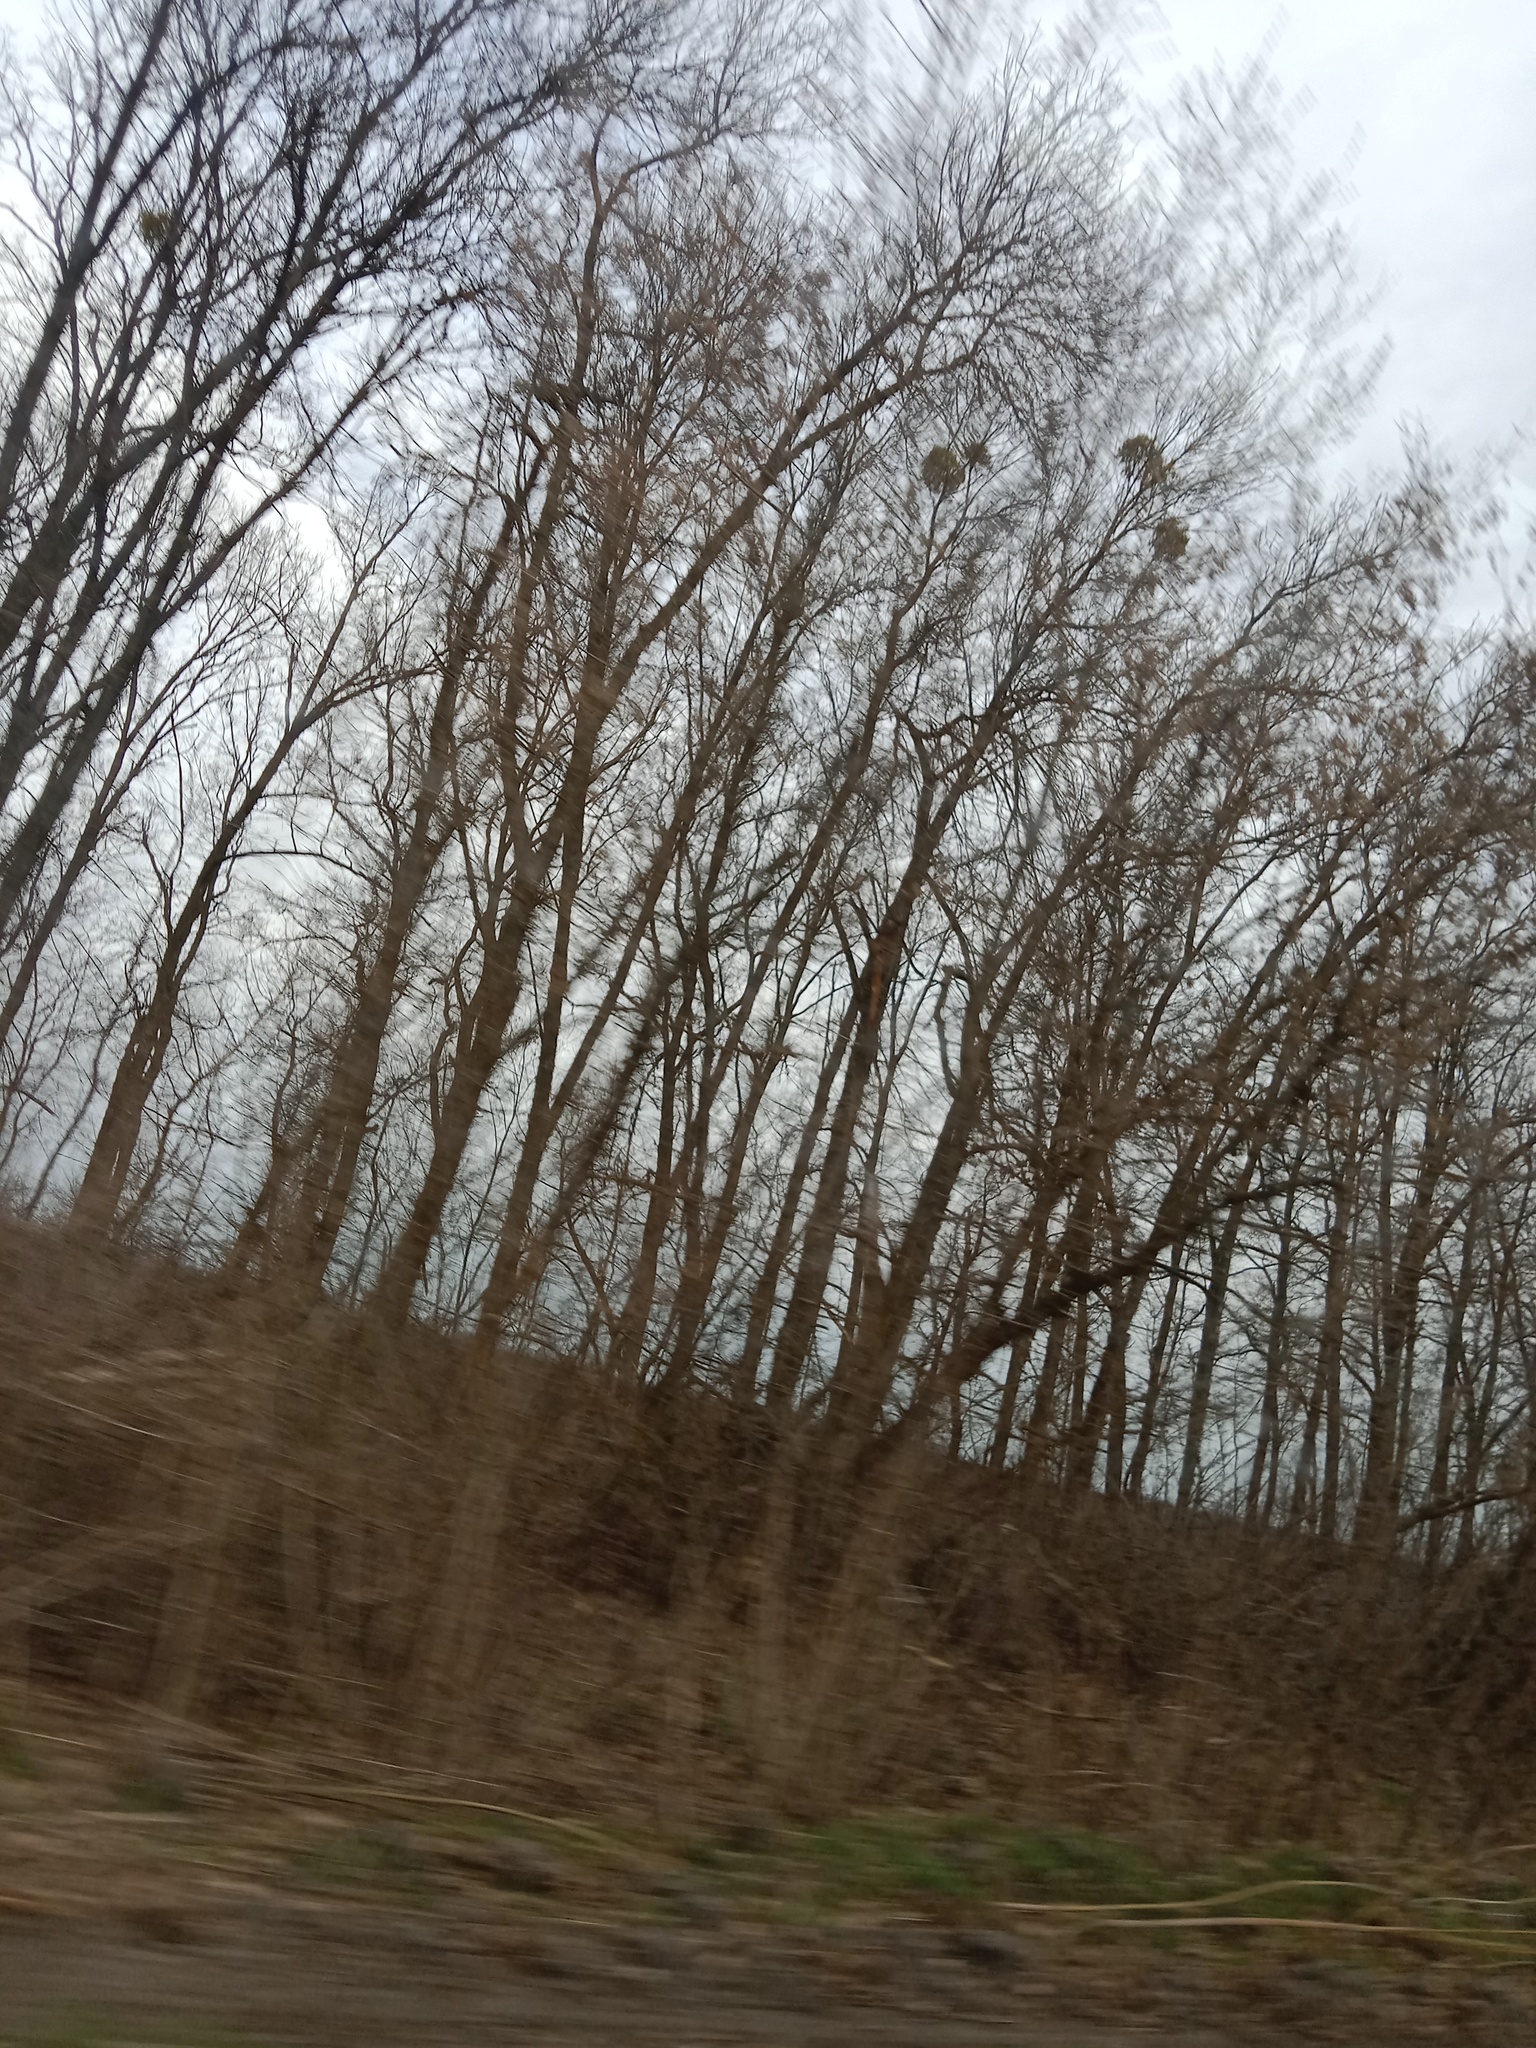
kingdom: Plantae
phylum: Tracheophyta
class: Magnoliopsida
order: Santalales
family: Viscaceae
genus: Viscum
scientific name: Viscum album
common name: Mistletoe
